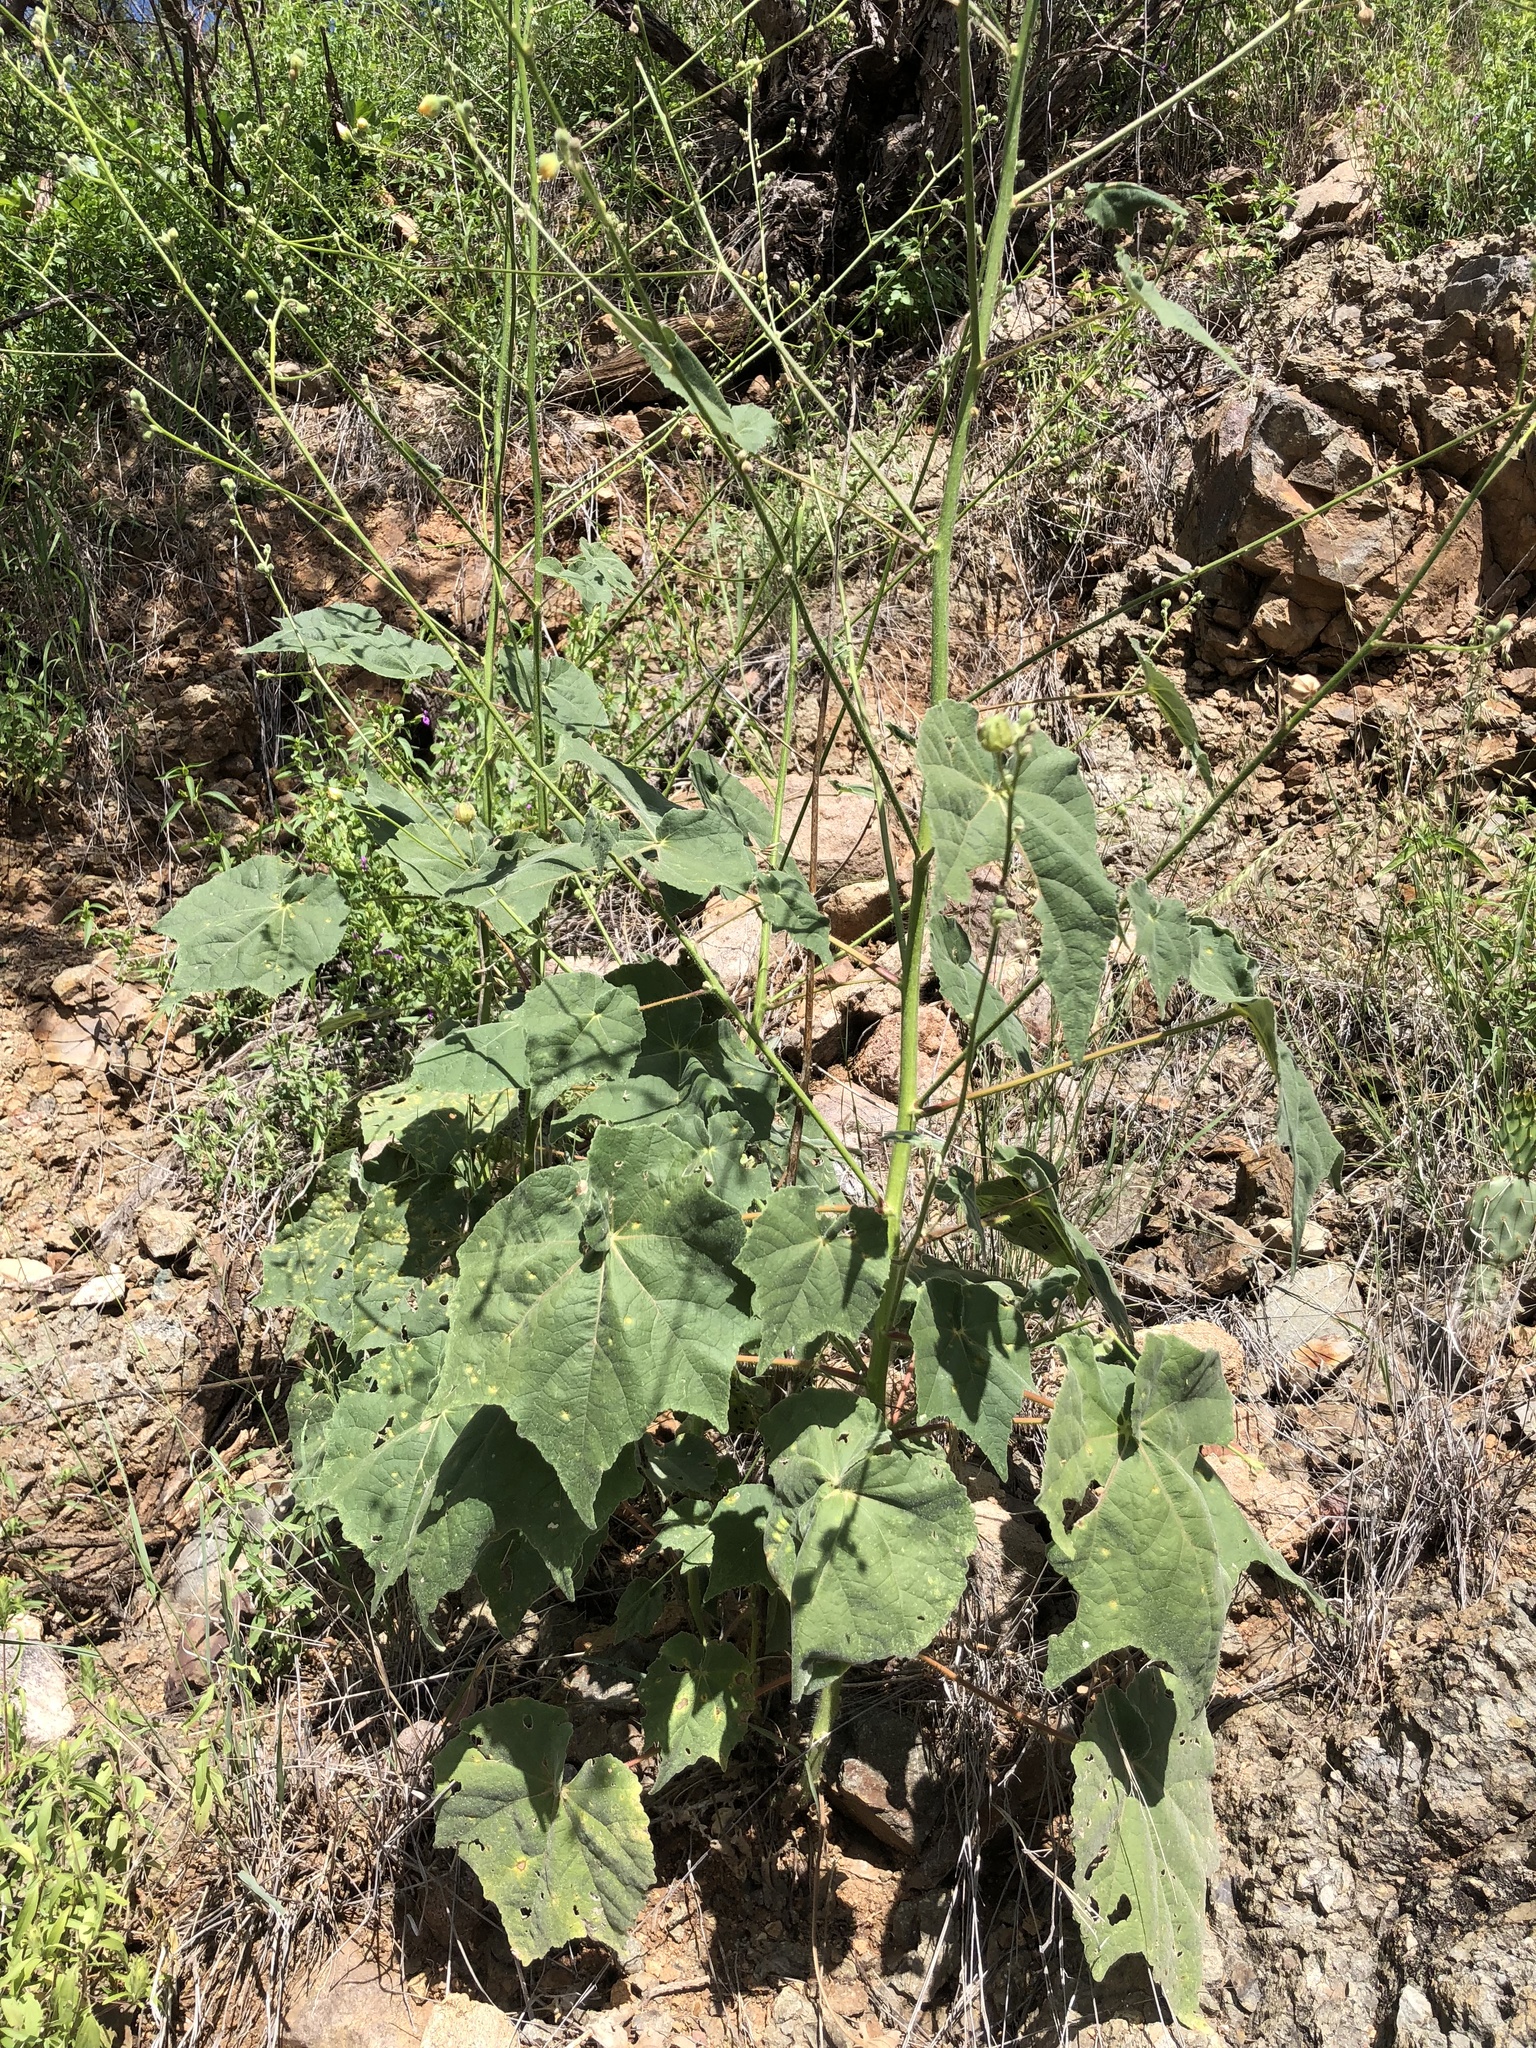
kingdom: Plantae
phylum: Tracheophyta
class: Magnoliopsida
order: Malvales
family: Malvaceae
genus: Abutilon
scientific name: Abutilon mollicomum
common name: Sonoran indian-mallow
